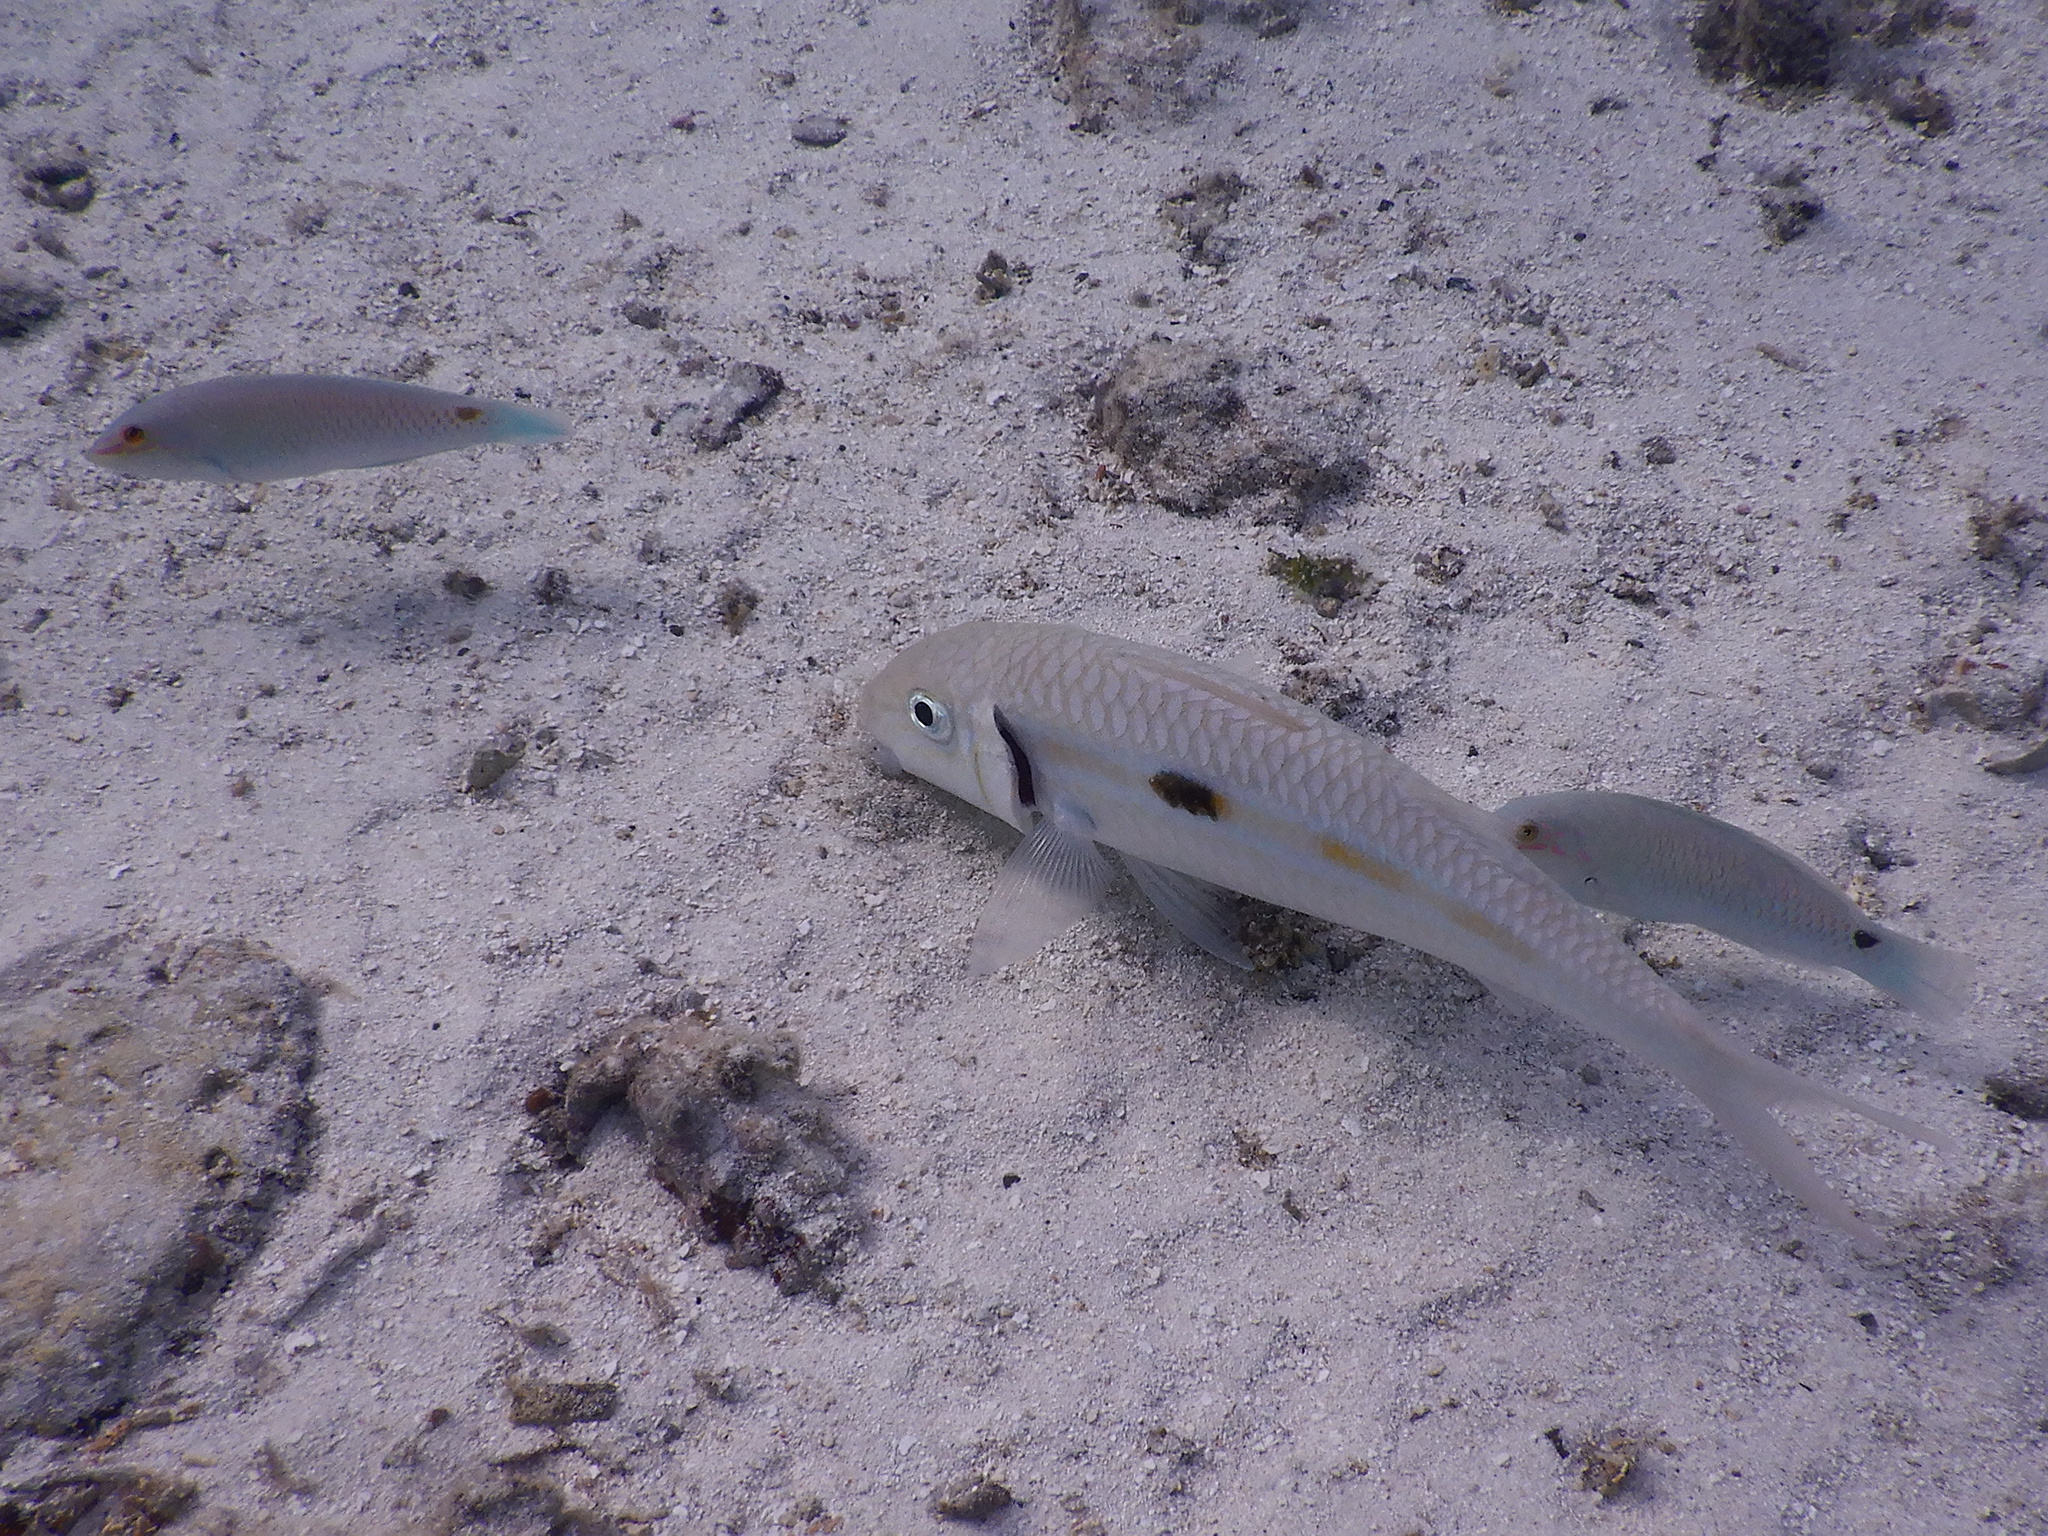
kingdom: Animalia
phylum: Chordata
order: Perciformes
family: Mullidae
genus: Mulloidichthys
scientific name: Mulloidichthys flavolineatus
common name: Yellowstripe goatfish
